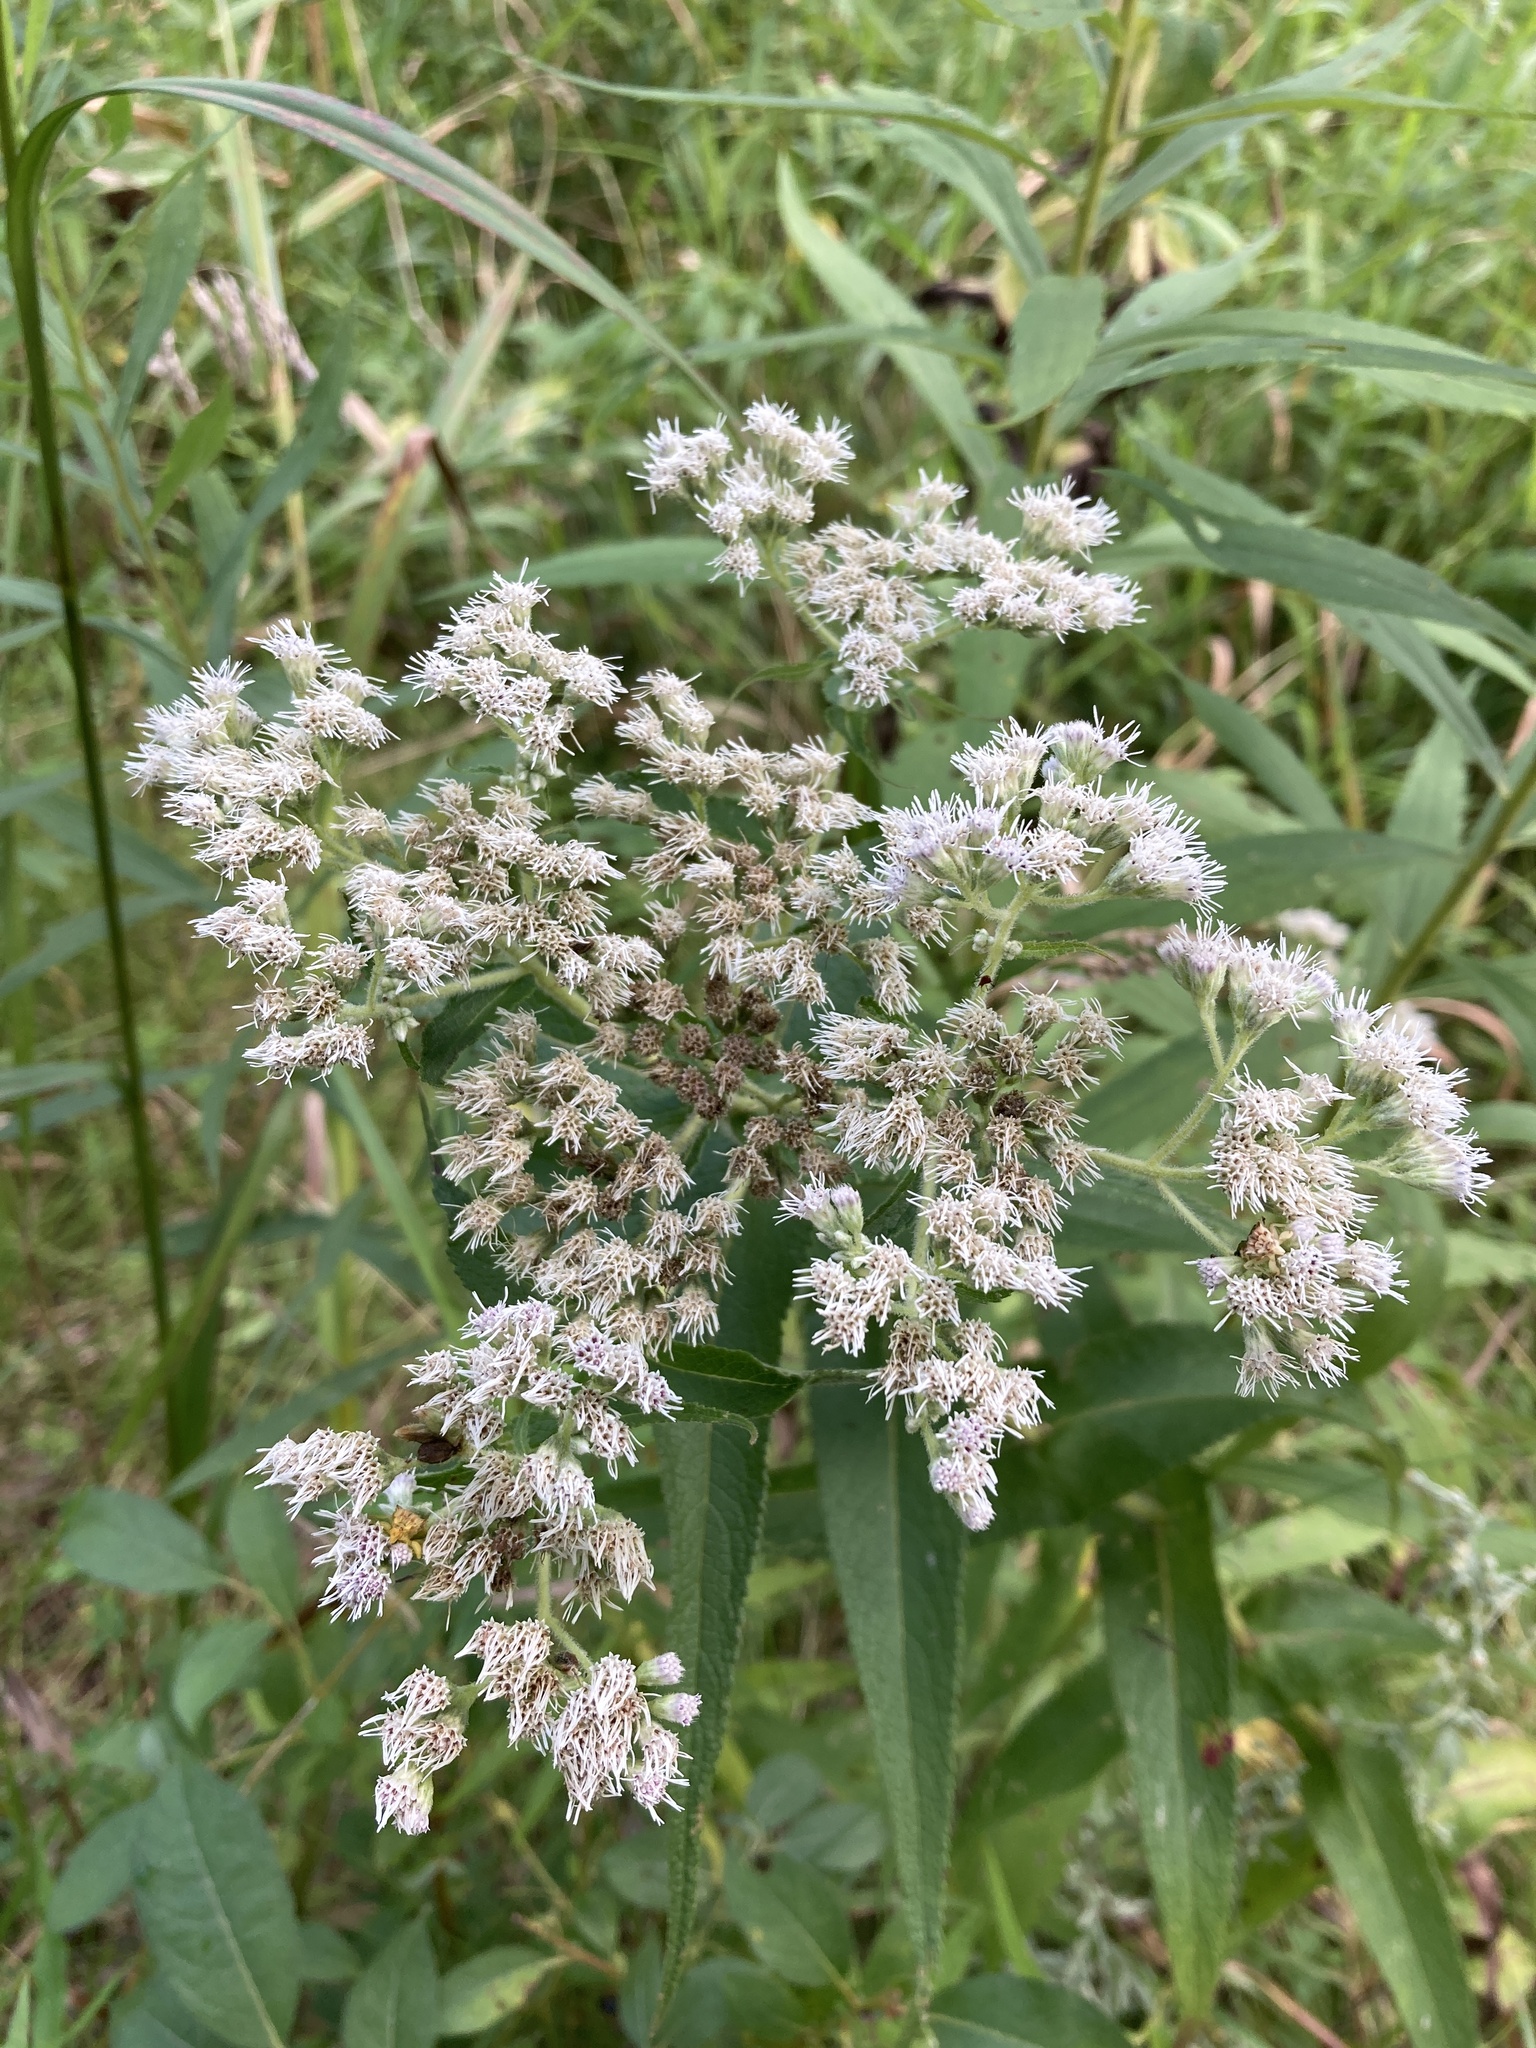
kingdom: Plantae
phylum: Tracheophyta
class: Magnoliopsida
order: Asterales
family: Asteraceae
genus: Eupatorium
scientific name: Eupatorium perfoliatum
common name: Boneset
